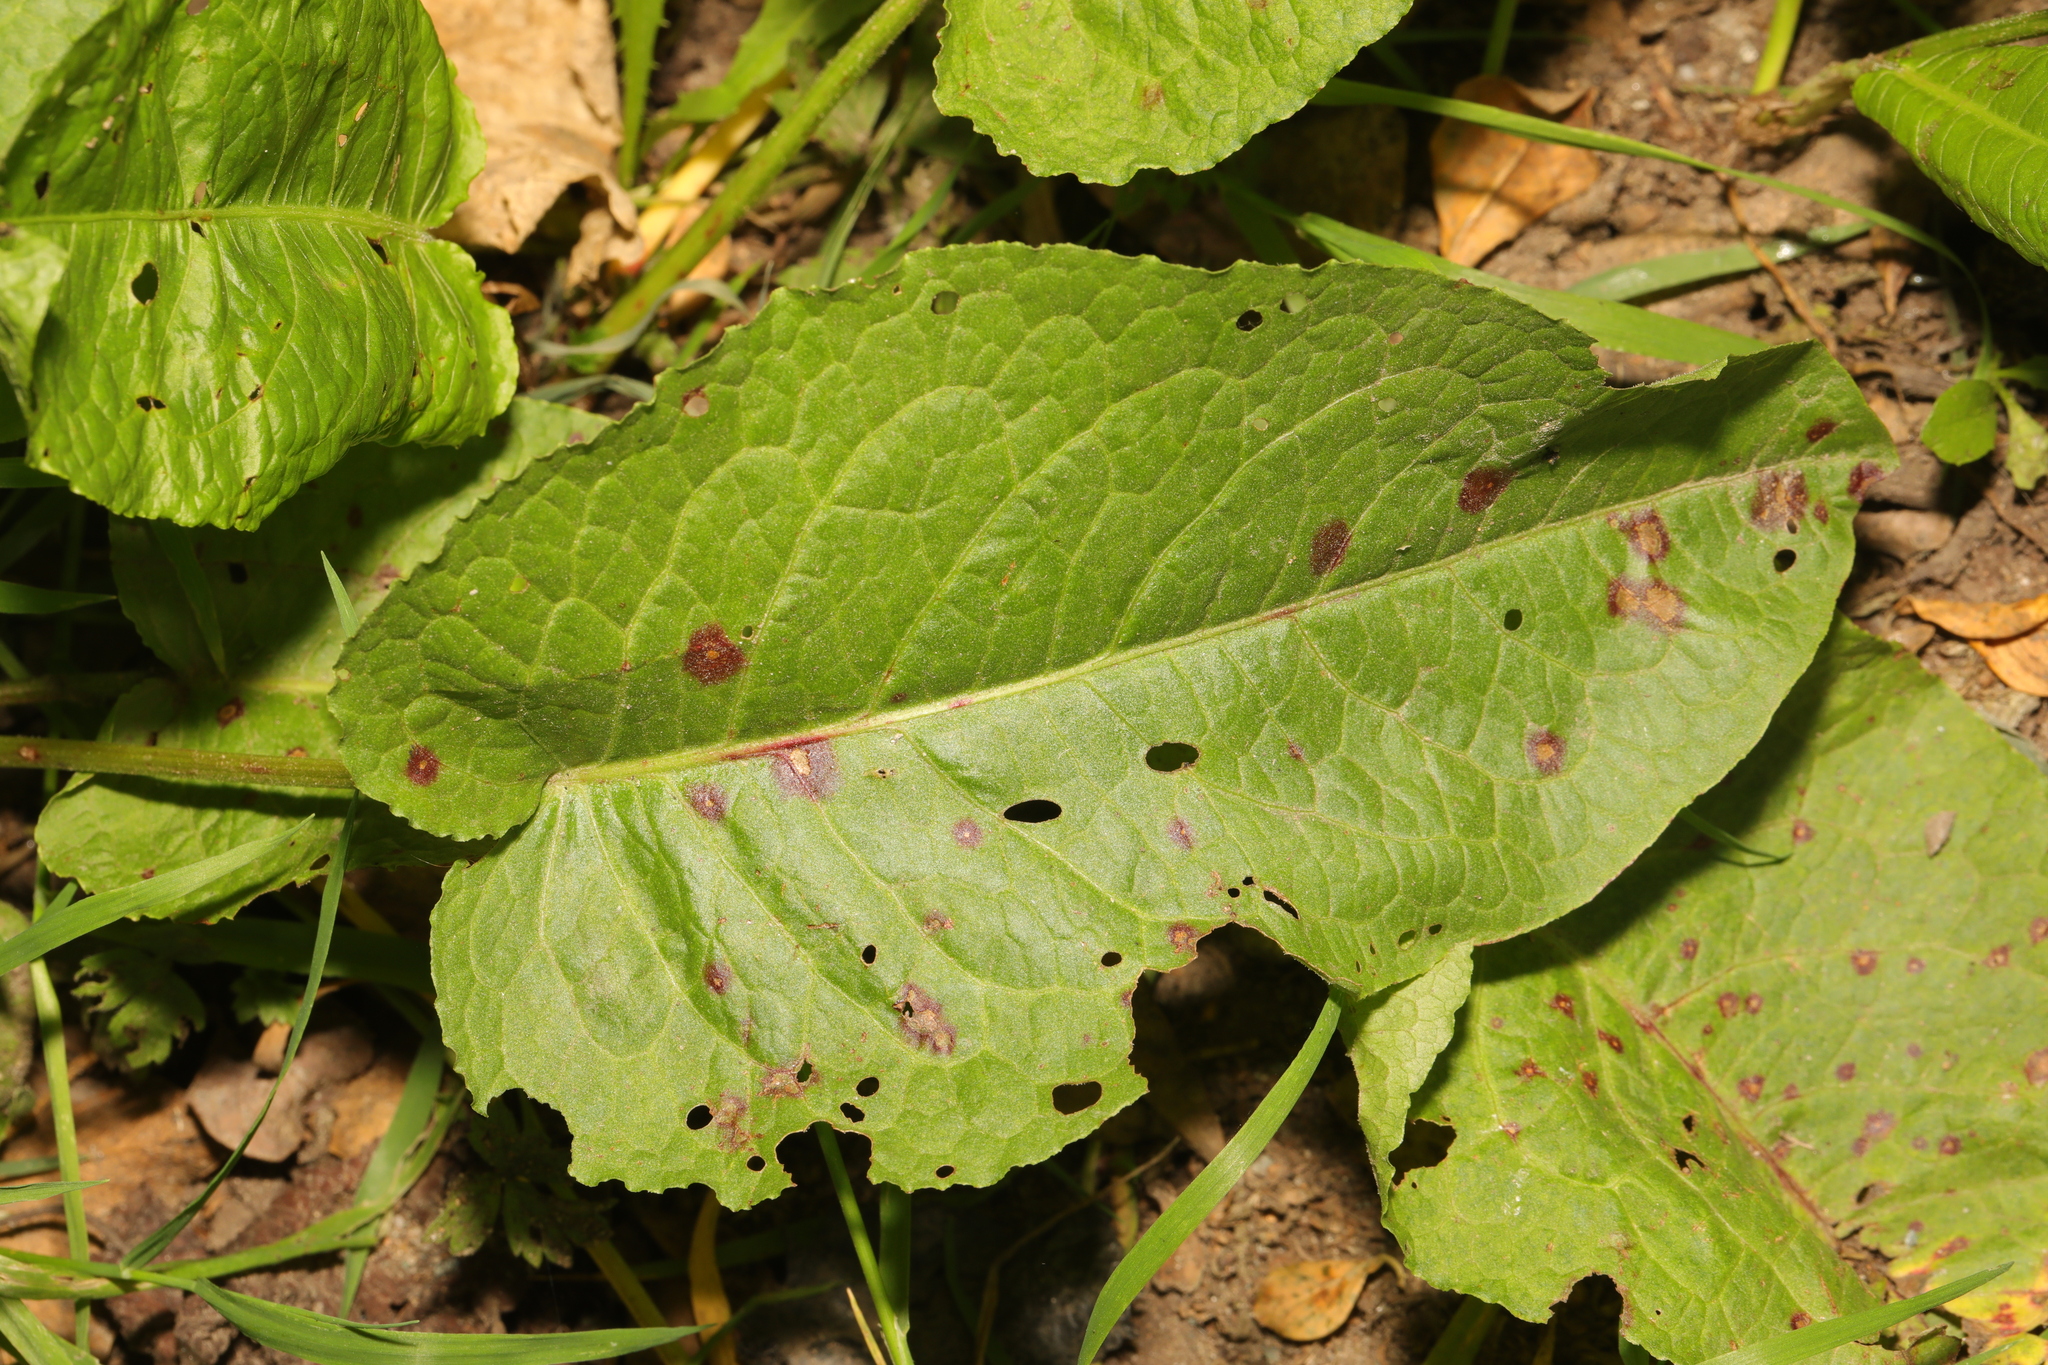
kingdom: Plantae
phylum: Tracheophyta
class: Magnoliopsida
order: Caryophyllales
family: Polygonaceae
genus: Rumex
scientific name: Rumex obtusifolius
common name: Bitter dock
